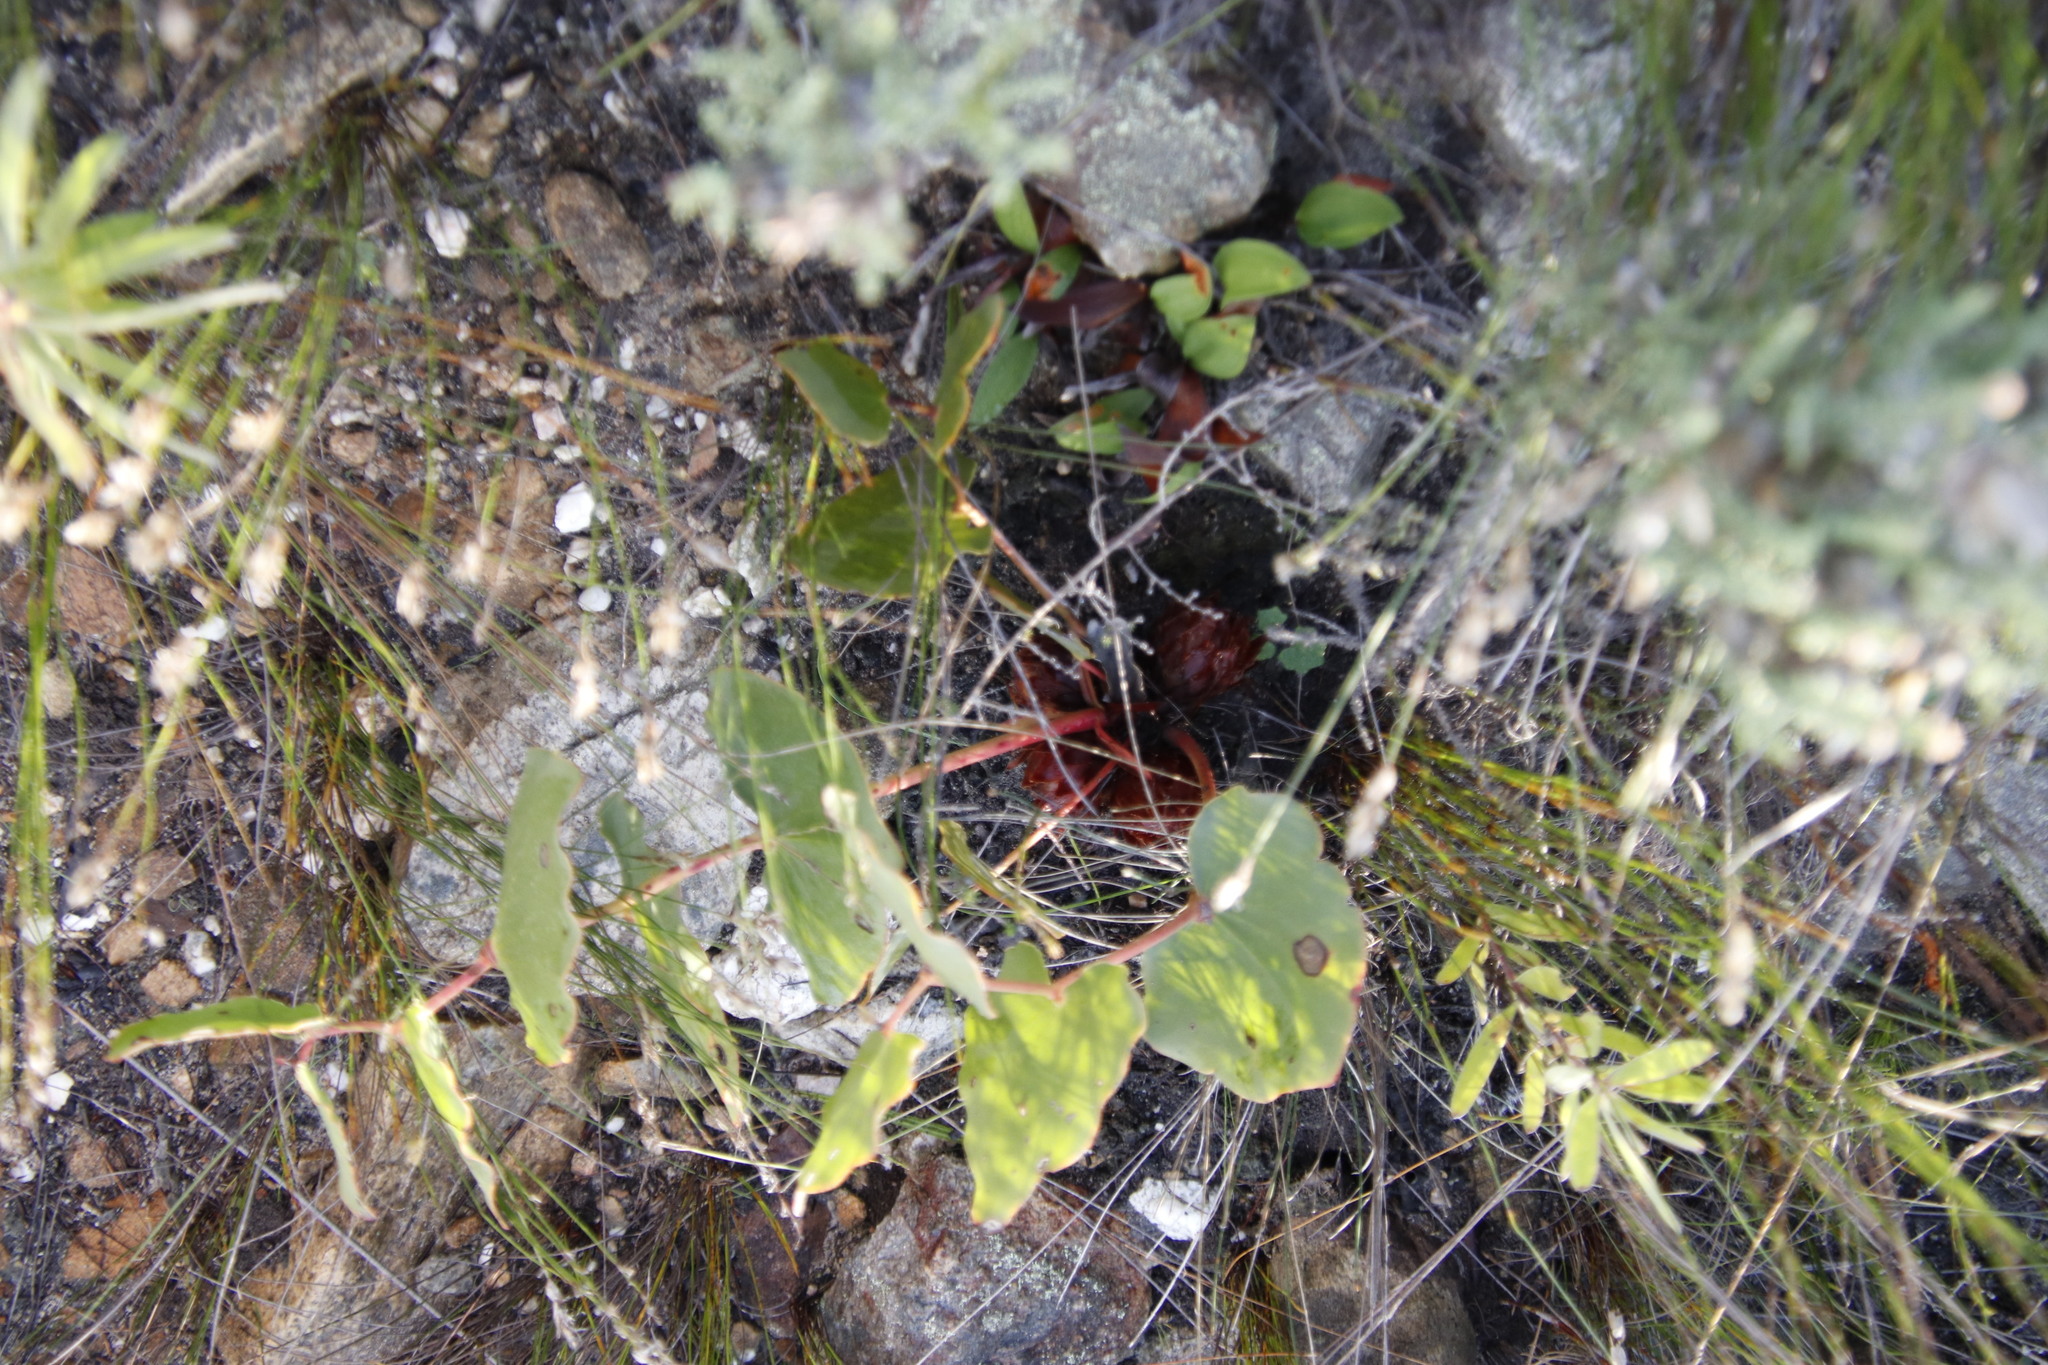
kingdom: Plantae
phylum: Tracheophyta
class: Magnoliopsida
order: Proteales
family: Proteaceae
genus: Protea
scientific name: Protea cordata
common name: Heart-leaf sugarbush
